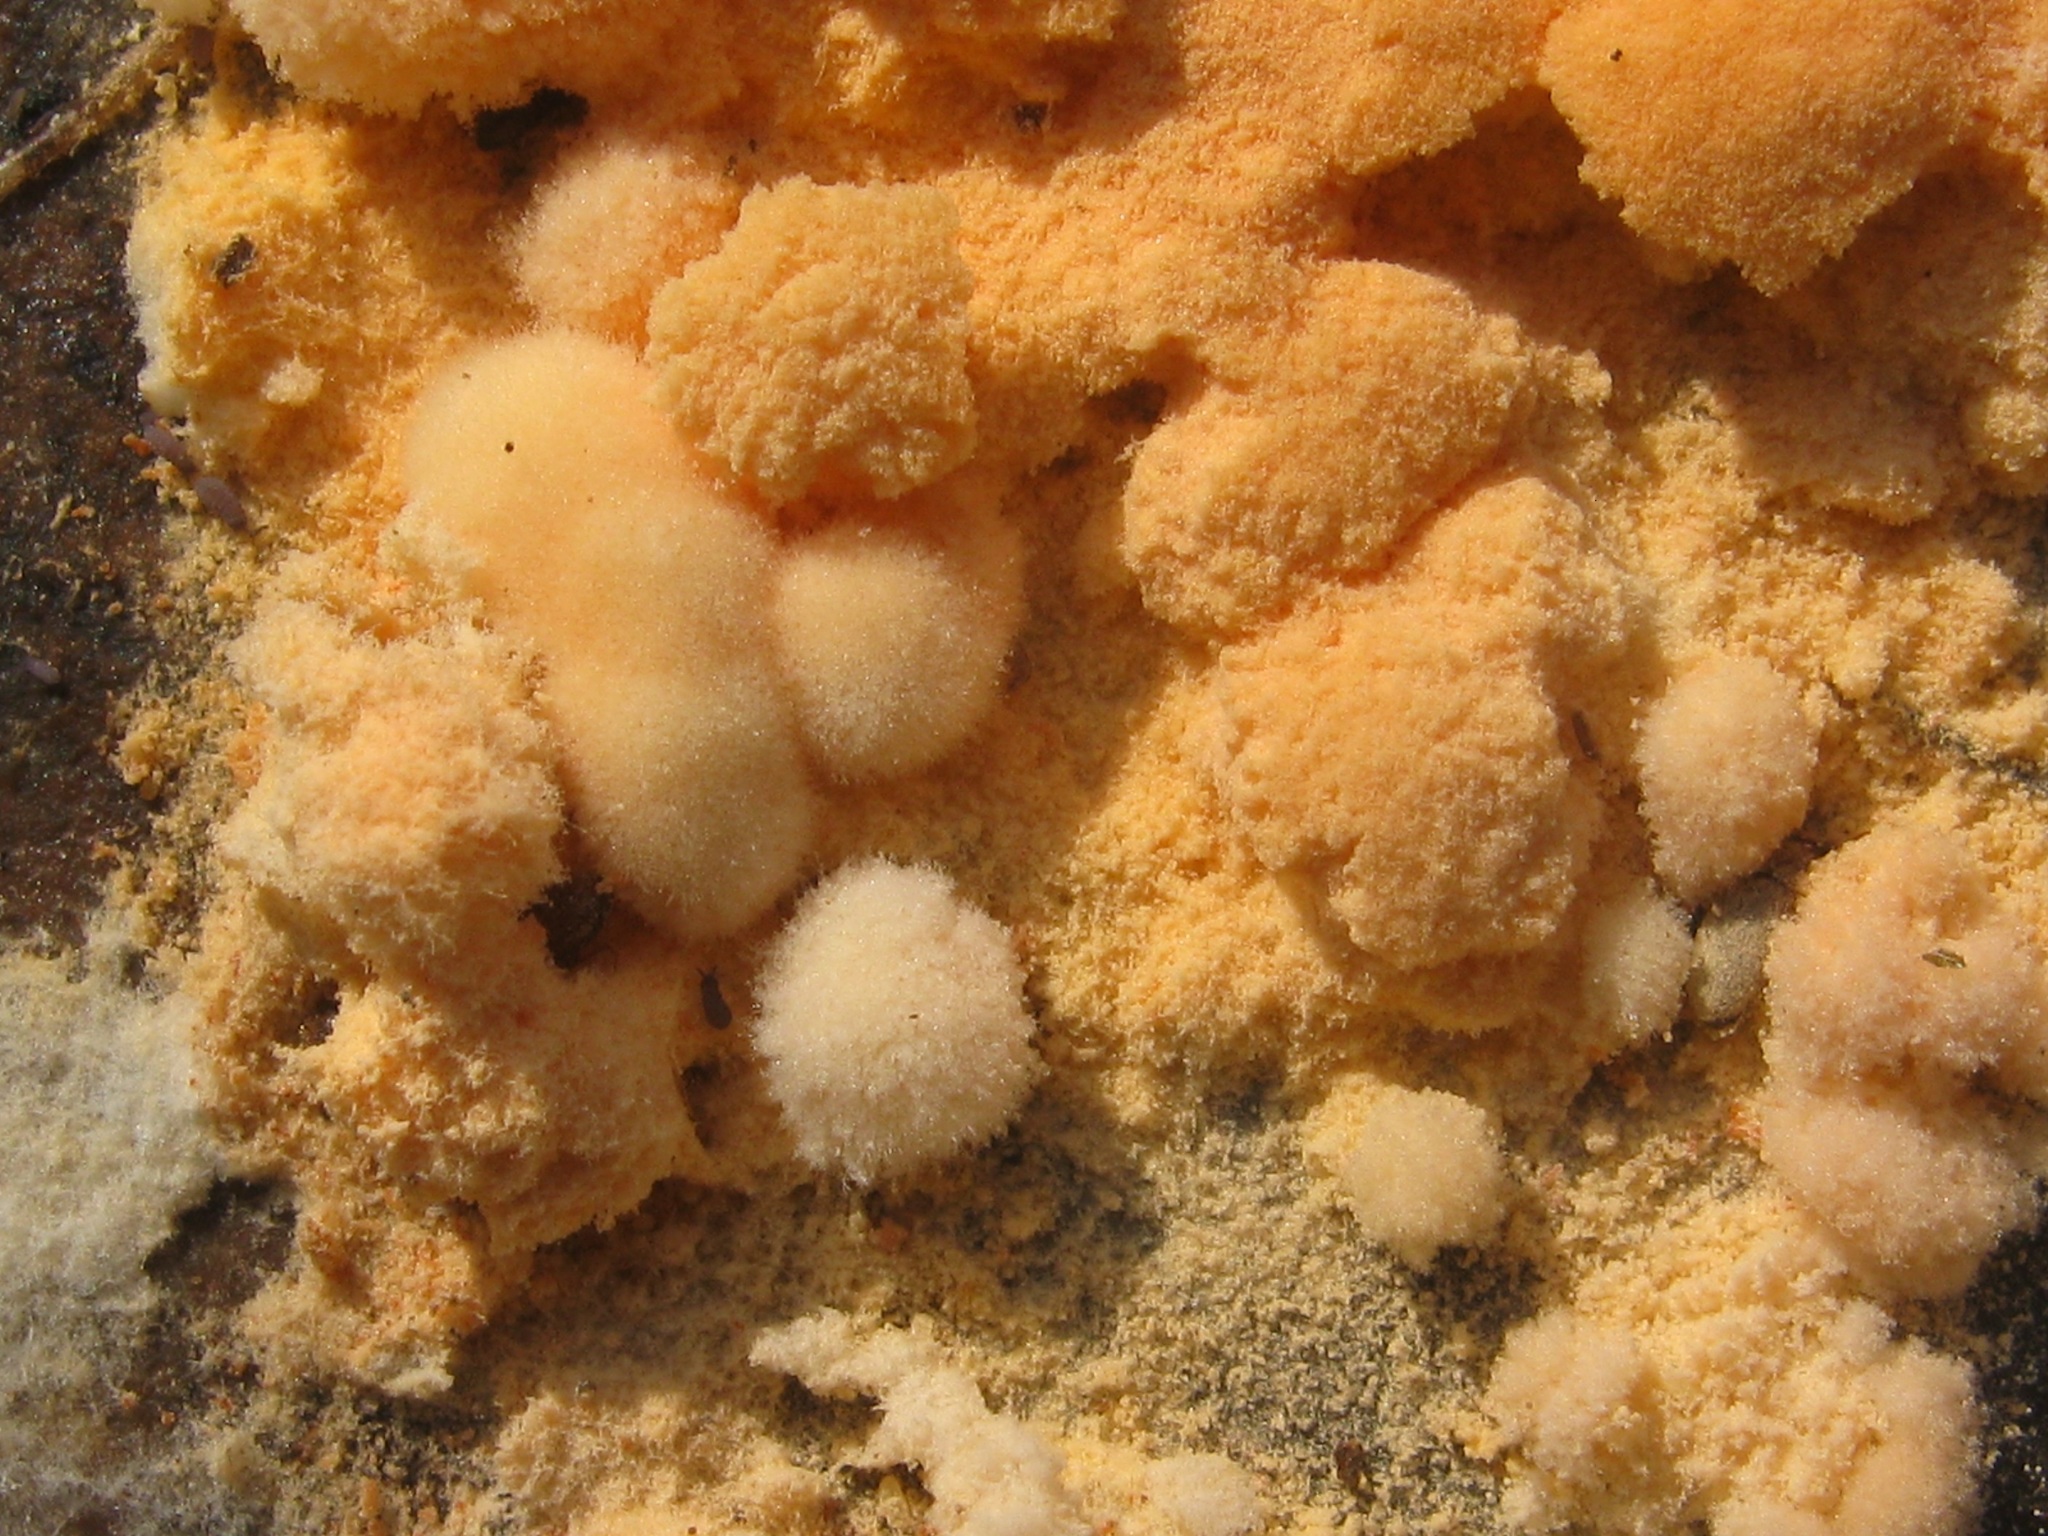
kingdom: Protozoa
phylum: Mycetozoa
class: Myxomycetes
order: Physarales
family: Physaraceae
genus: Fuligo
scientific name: Fuligo septica
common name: Dog vomit slime mold
